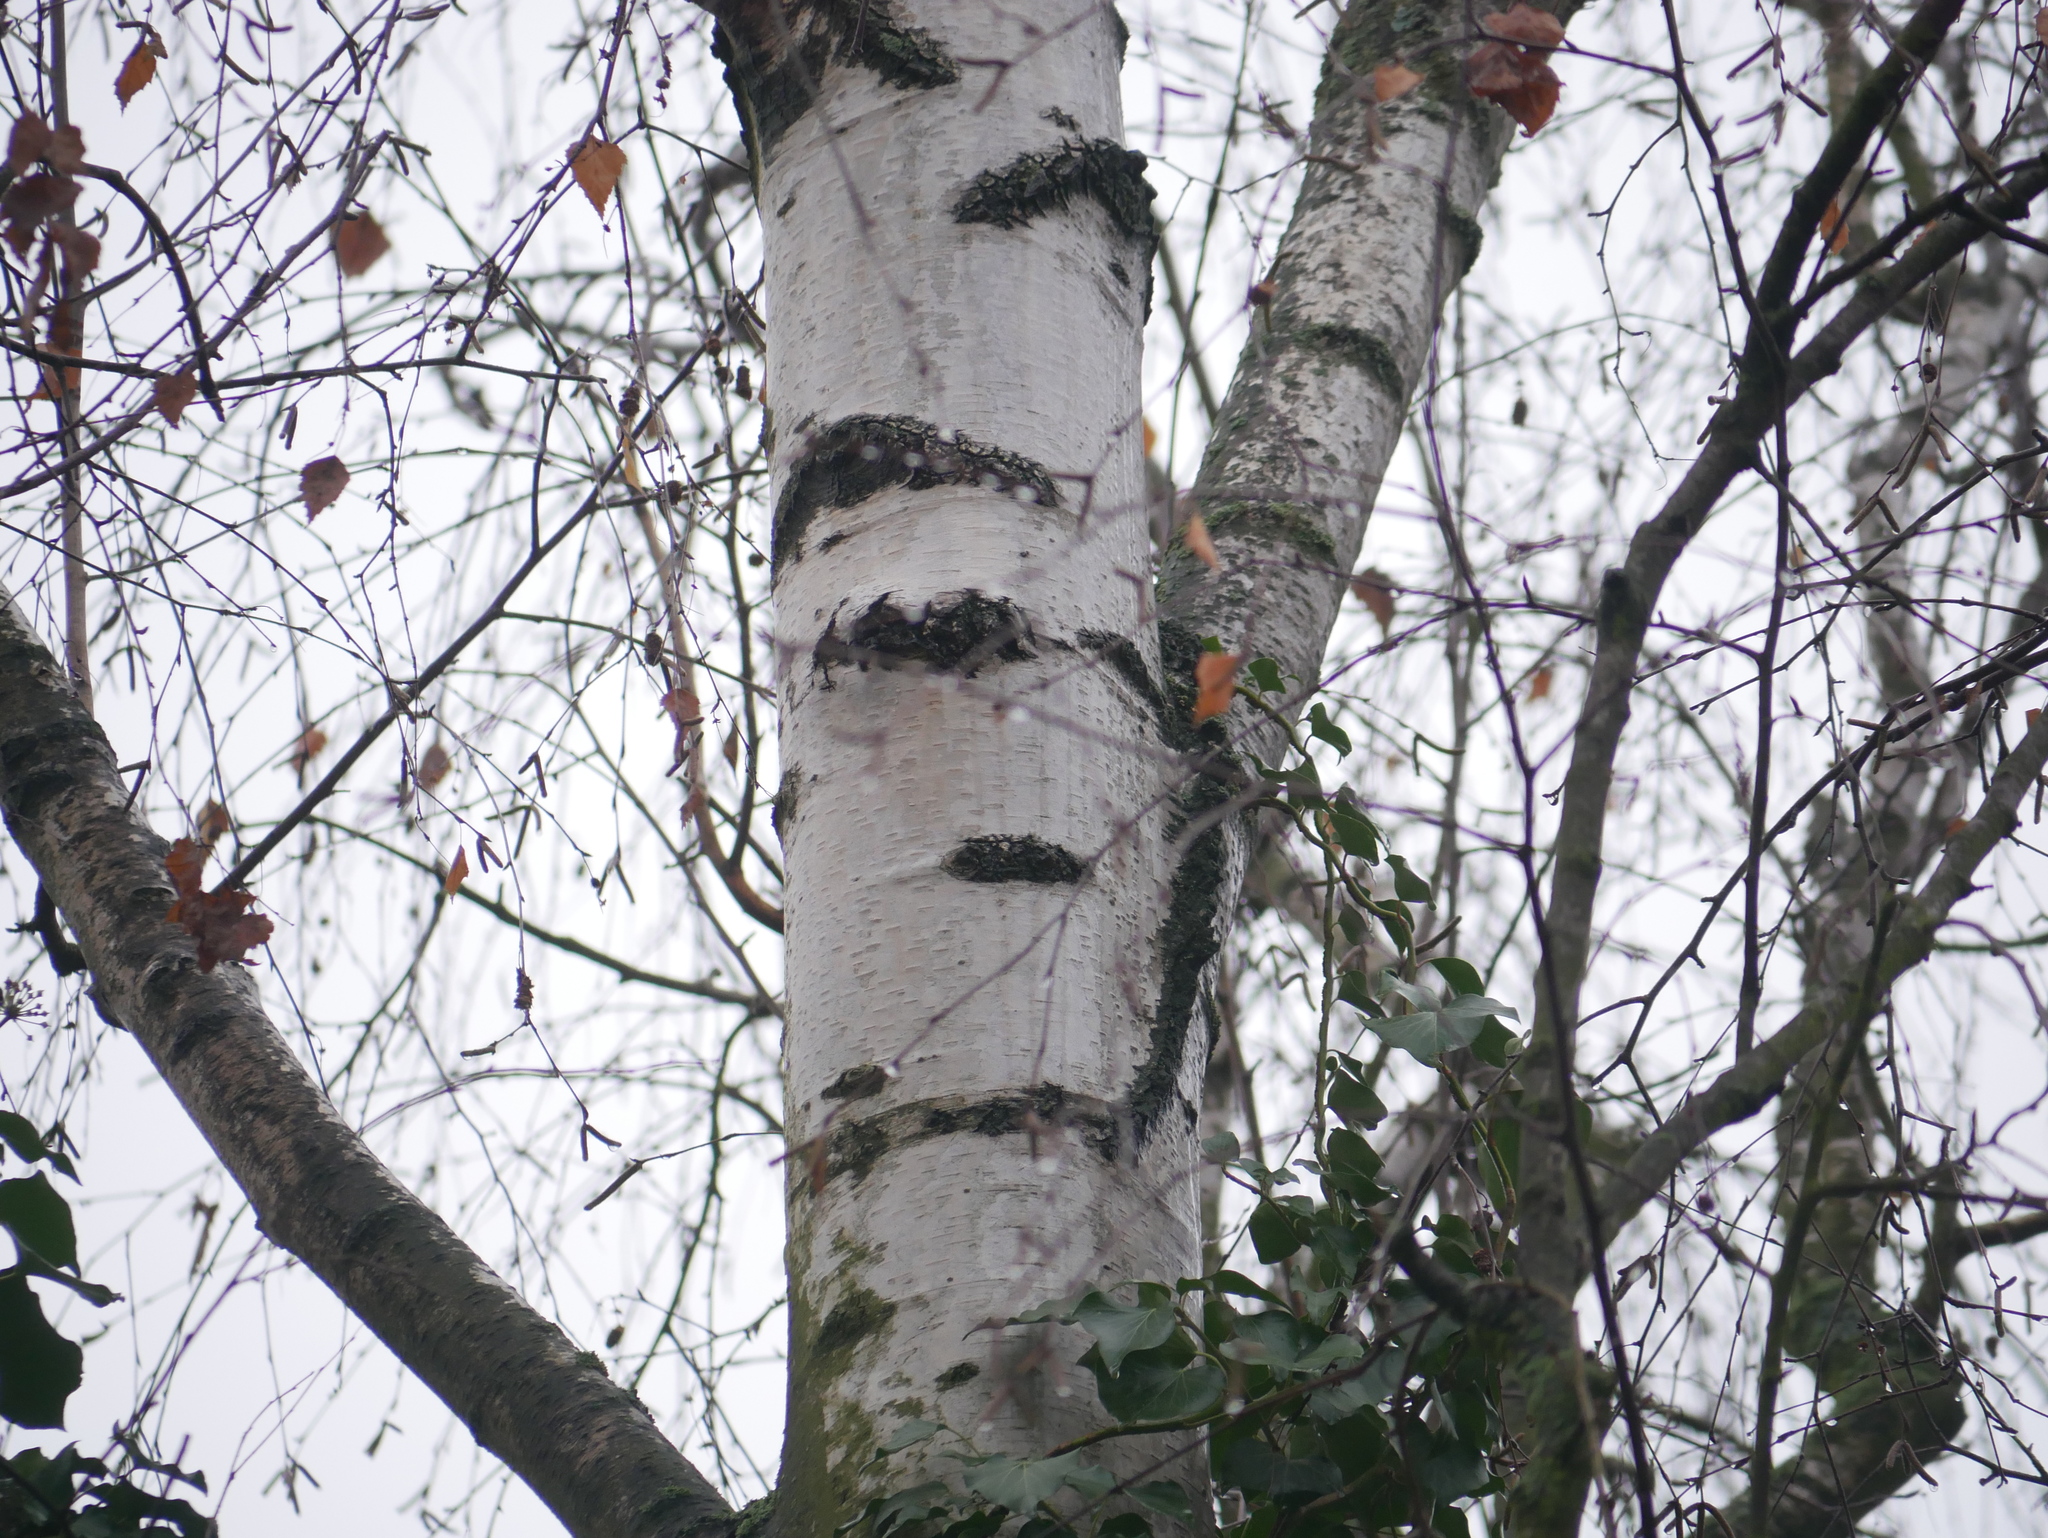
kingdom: Plantae
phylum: Tracheophyta
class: Magnoliopsida
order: Fagales
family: Betulaceae
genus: Betula
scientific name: Betula pendula
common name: Silver birch
